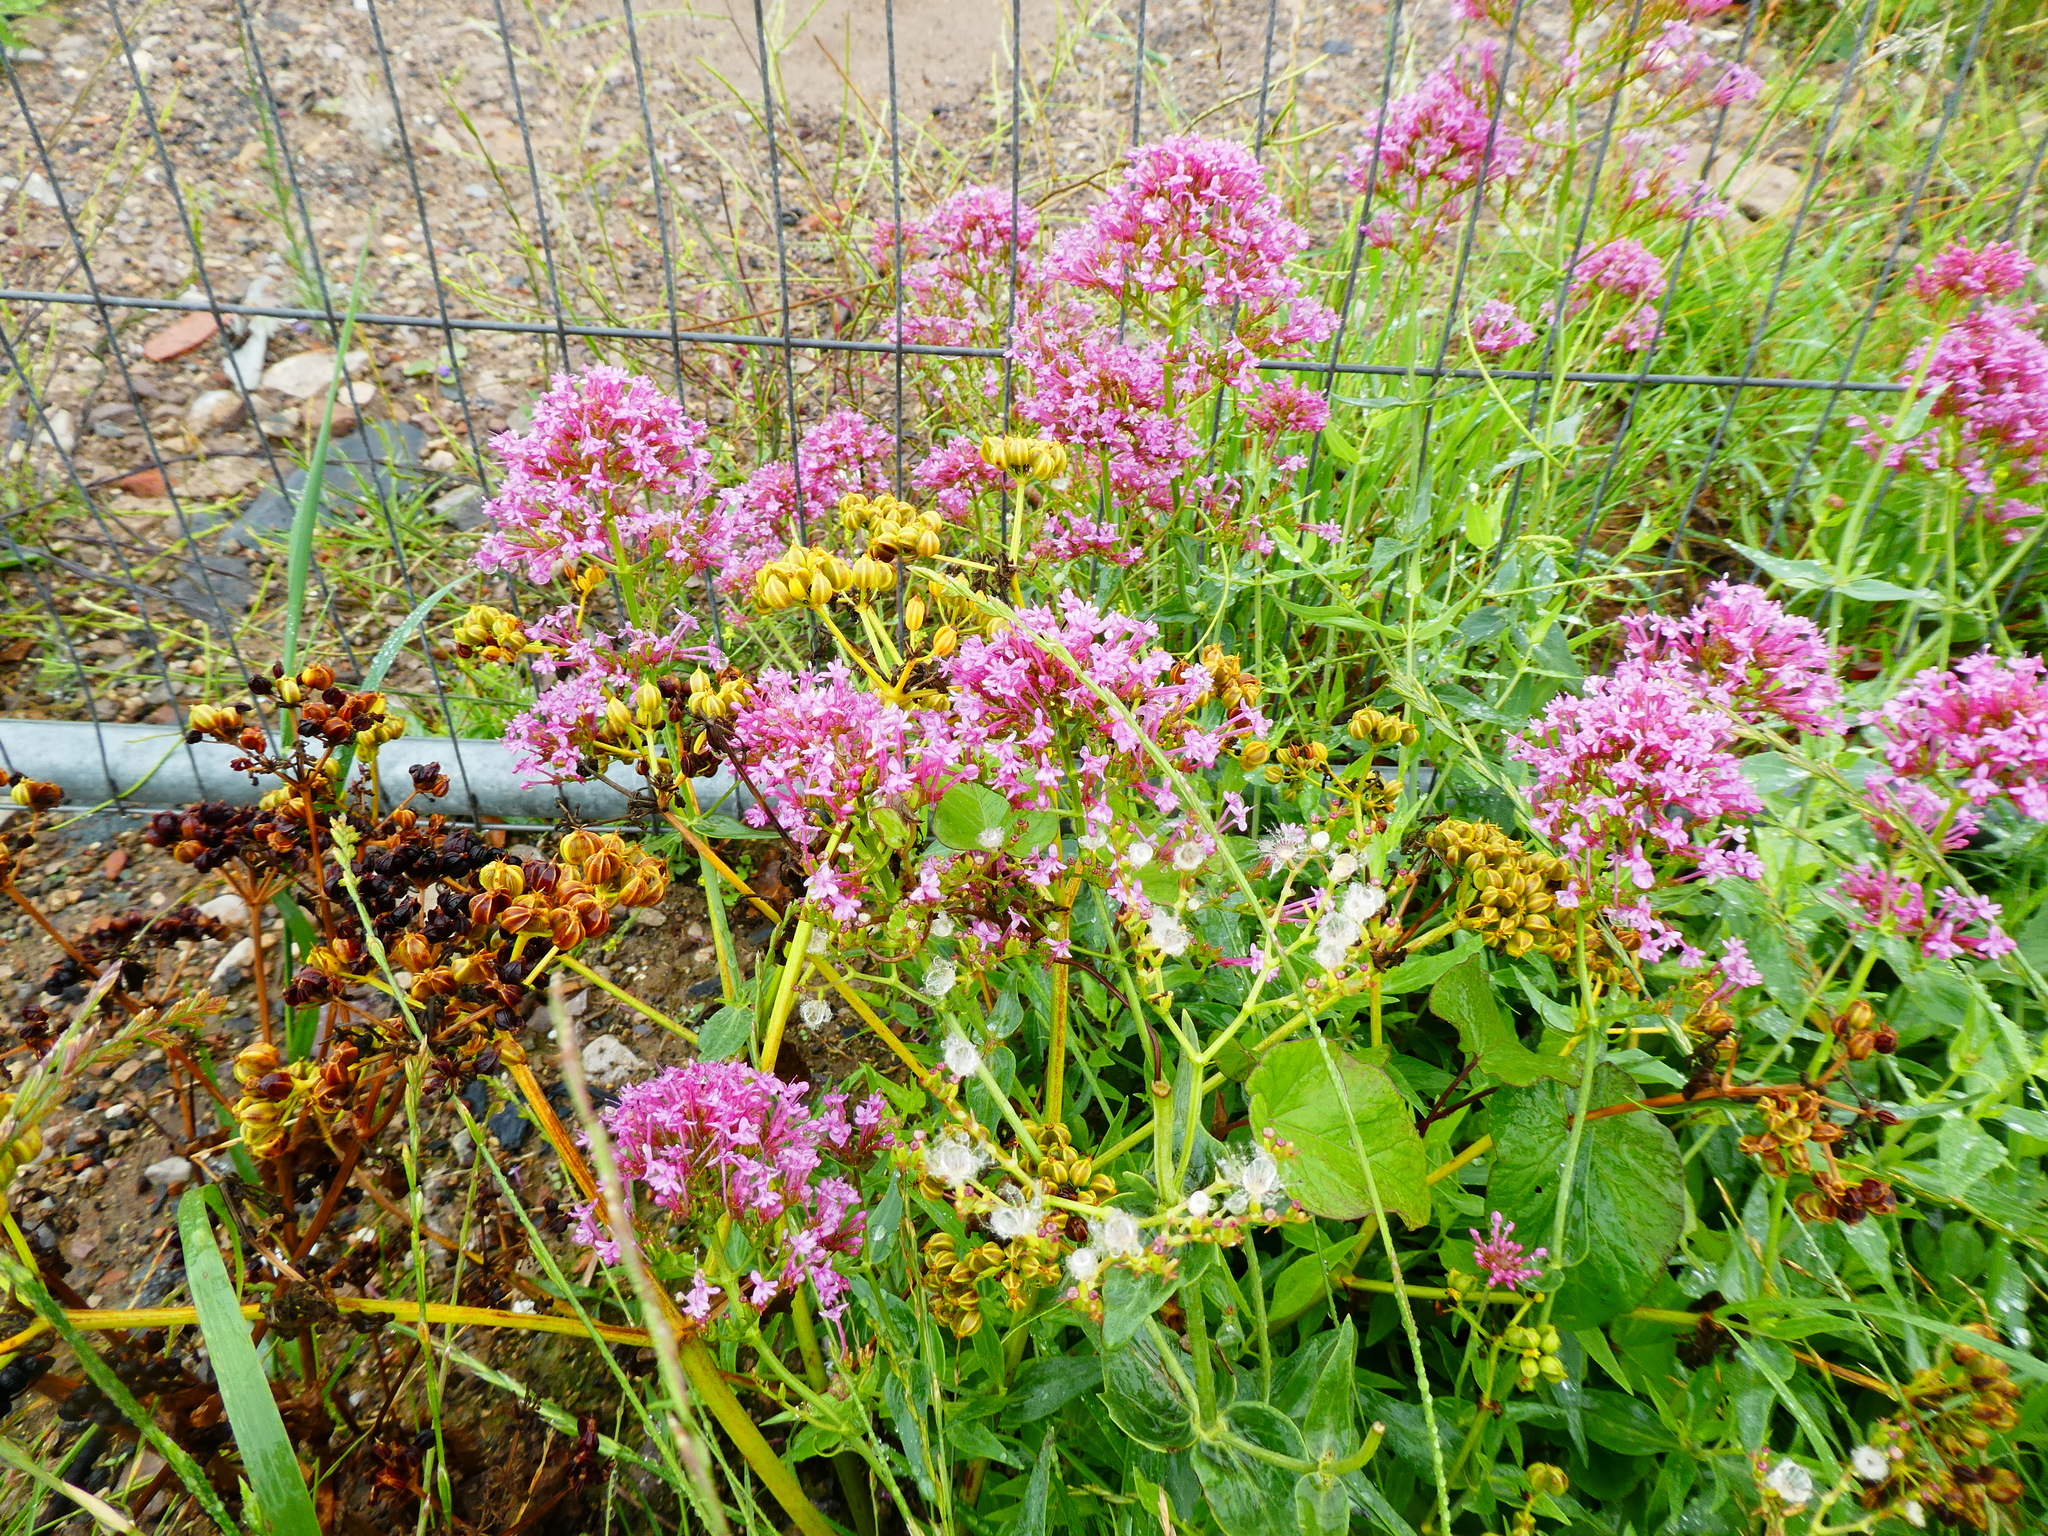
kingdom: Plantae
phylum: Tracheophyta
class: Magnoliopsida
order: Dipsacales
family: Caprifoliaceae
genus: Centranthus
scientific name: Centranthus ruber
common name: Red valerian
